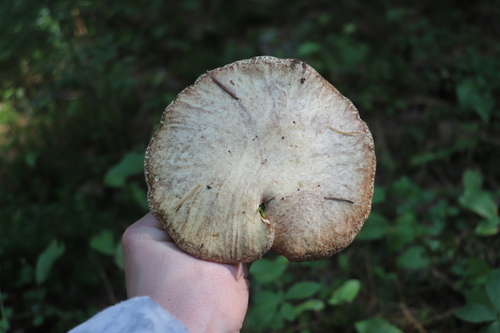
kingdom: Fungi
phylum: Basidiomycota
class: Agaricomycetes
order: Boletales
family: Suillaceae
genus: Suillus
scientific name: Suillus placidus
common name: Slippery white bolete
